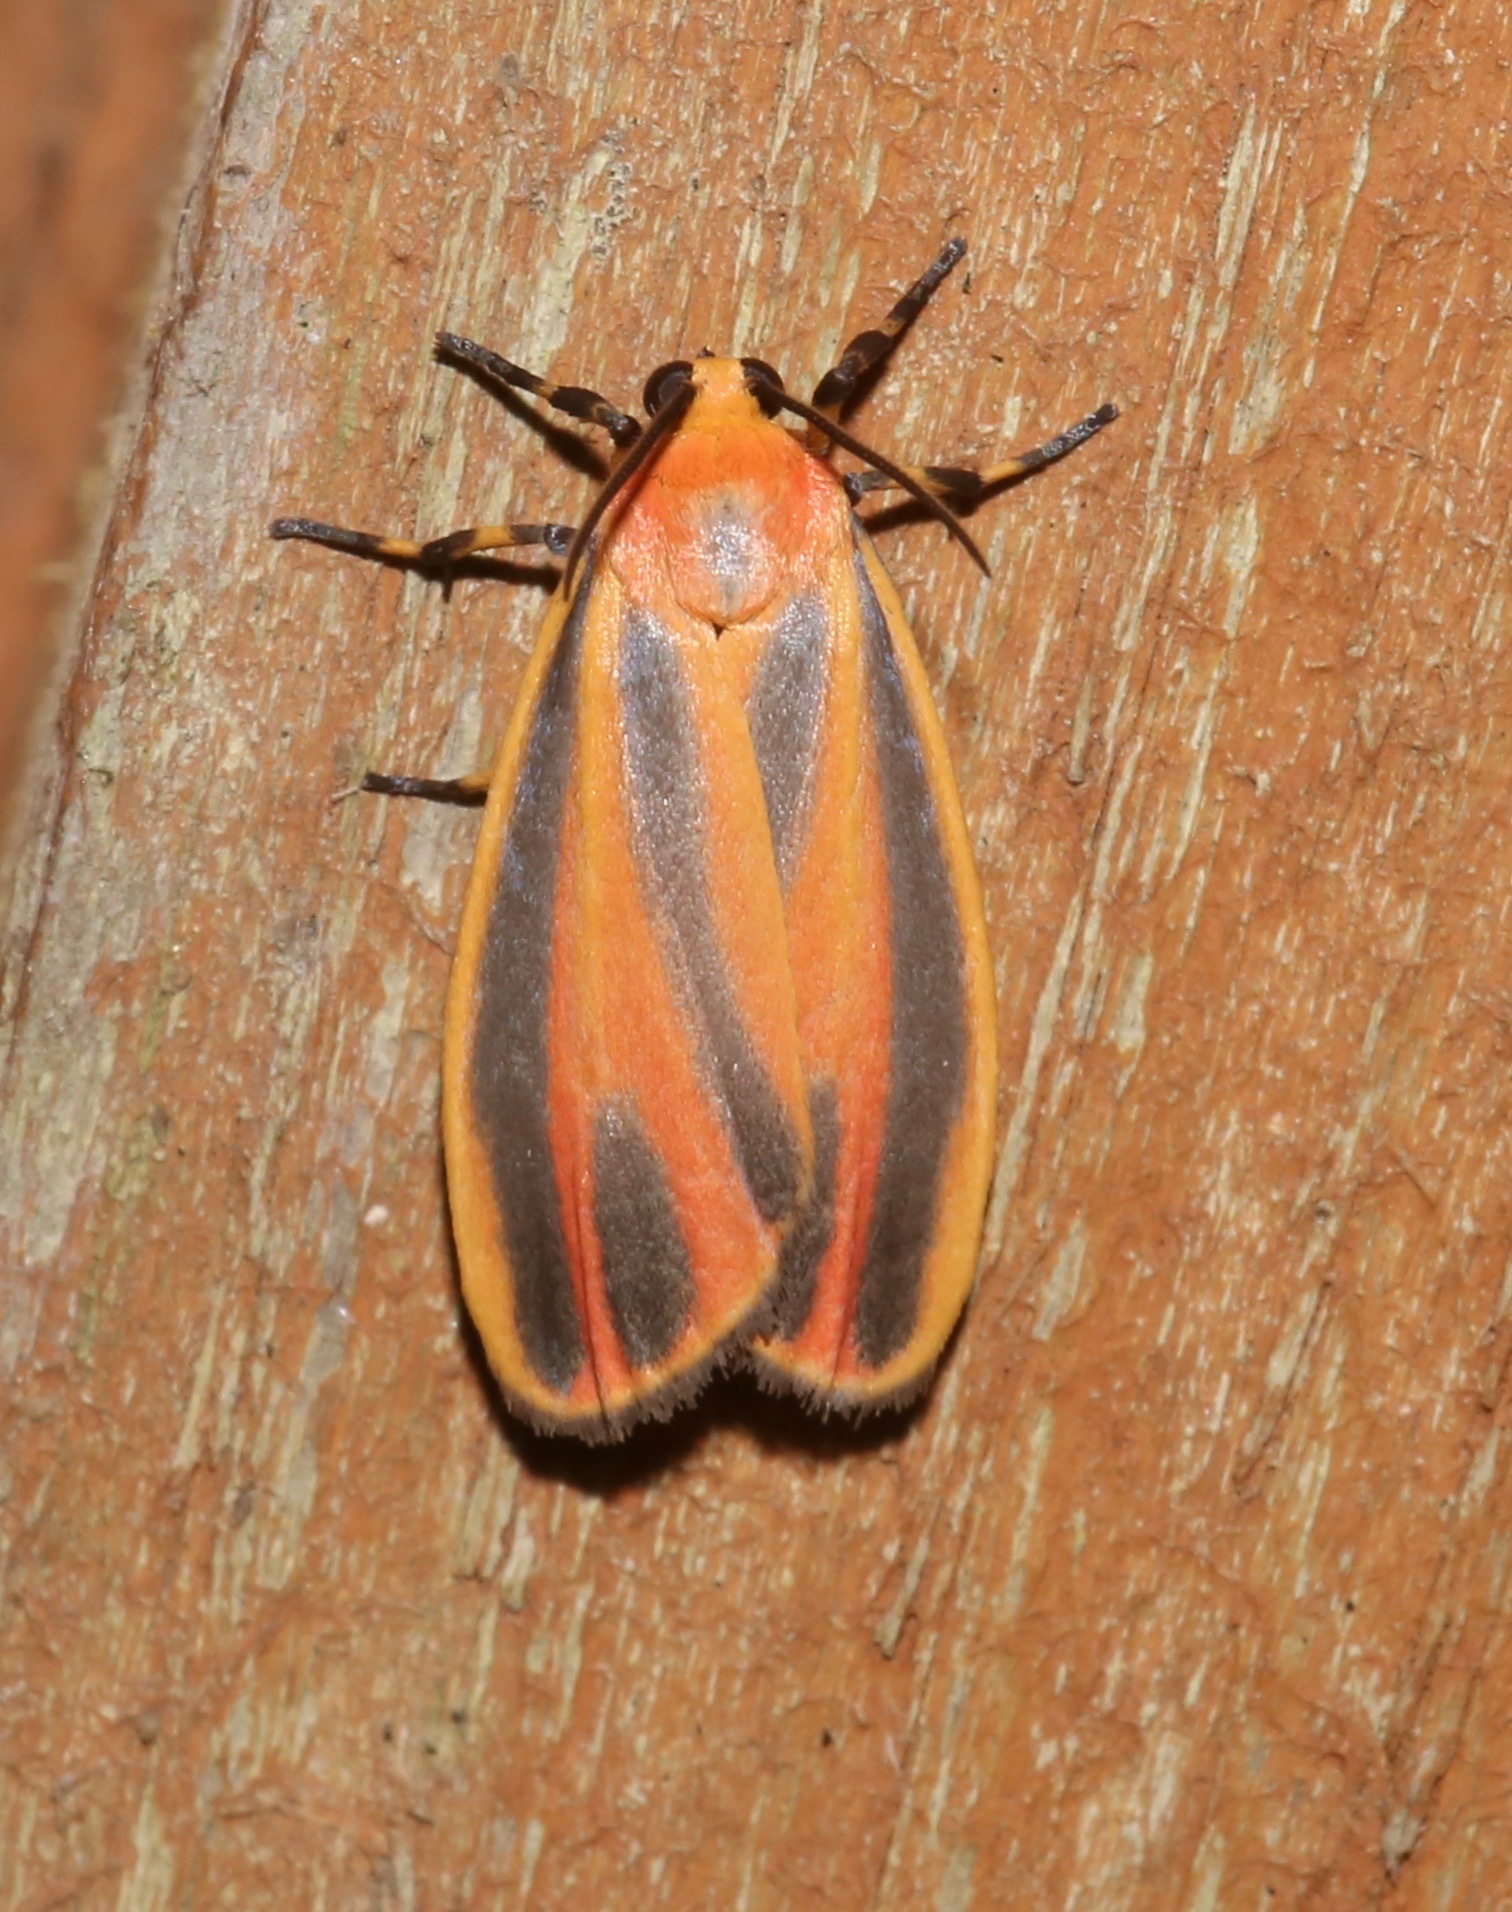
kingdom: Animalia
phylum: Arthropoda
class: Insecta
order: Lepidoptera
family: Erebidae
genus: Hypoprepia
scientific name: Hypoprepia fucosa
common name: Painted lichen moth
